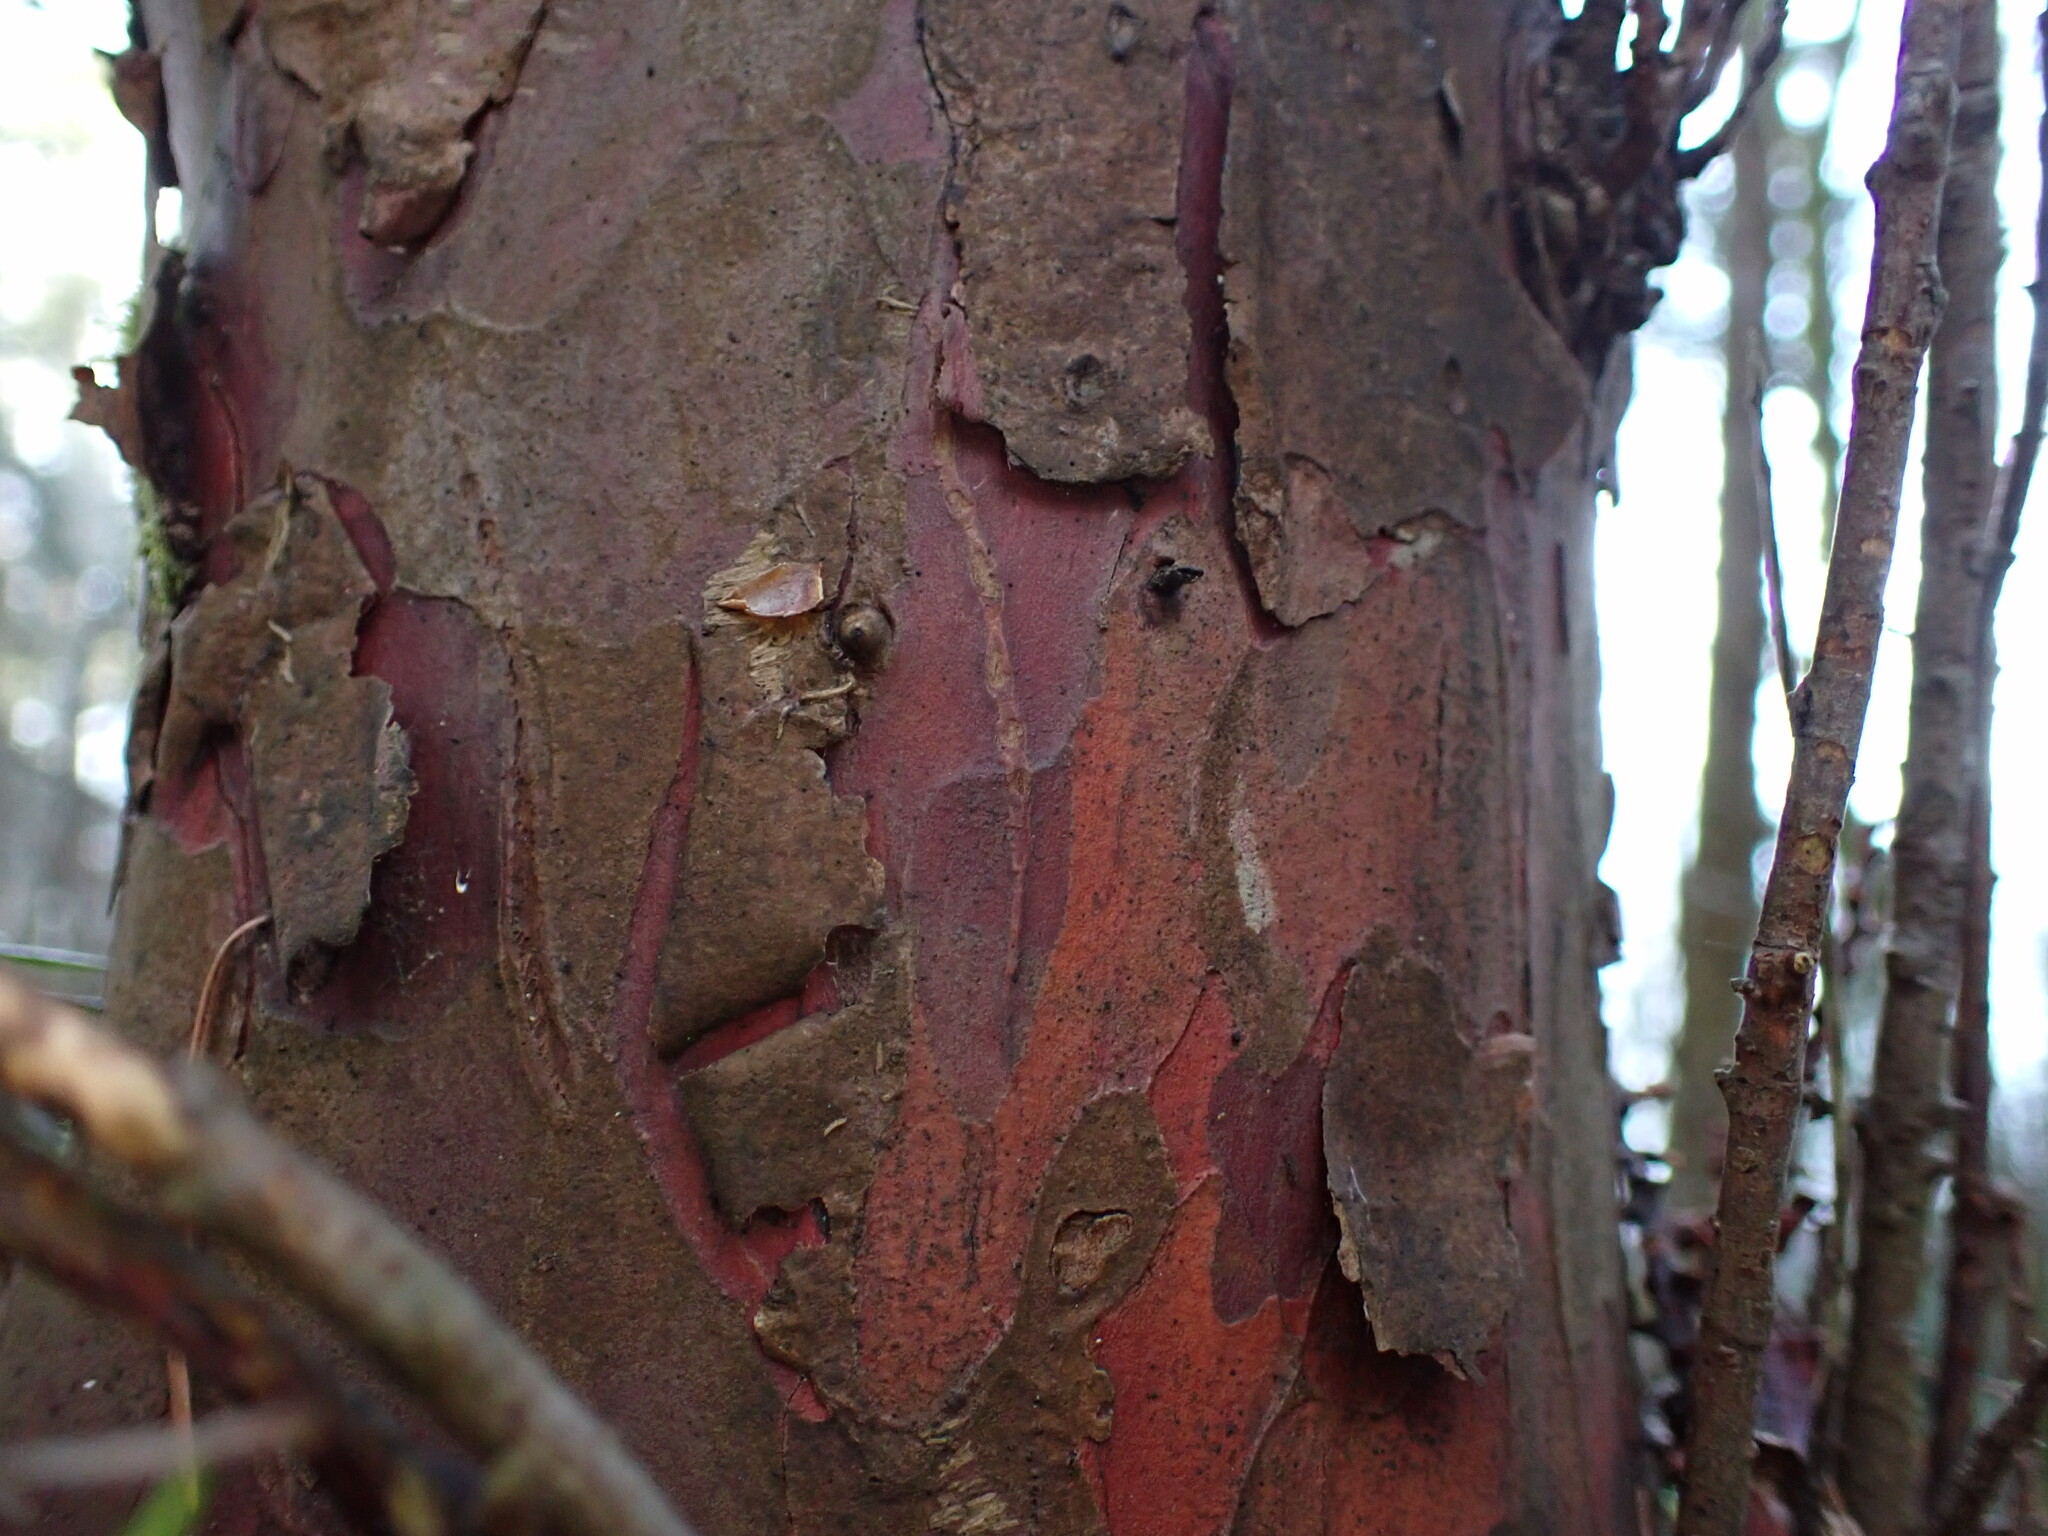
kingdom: Plantae
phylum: Tracheophyta
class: Pinopsida
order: Pinales
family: Taxaceae
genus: Taxus
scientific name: Taxus brevifolia
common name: Pacific yew
